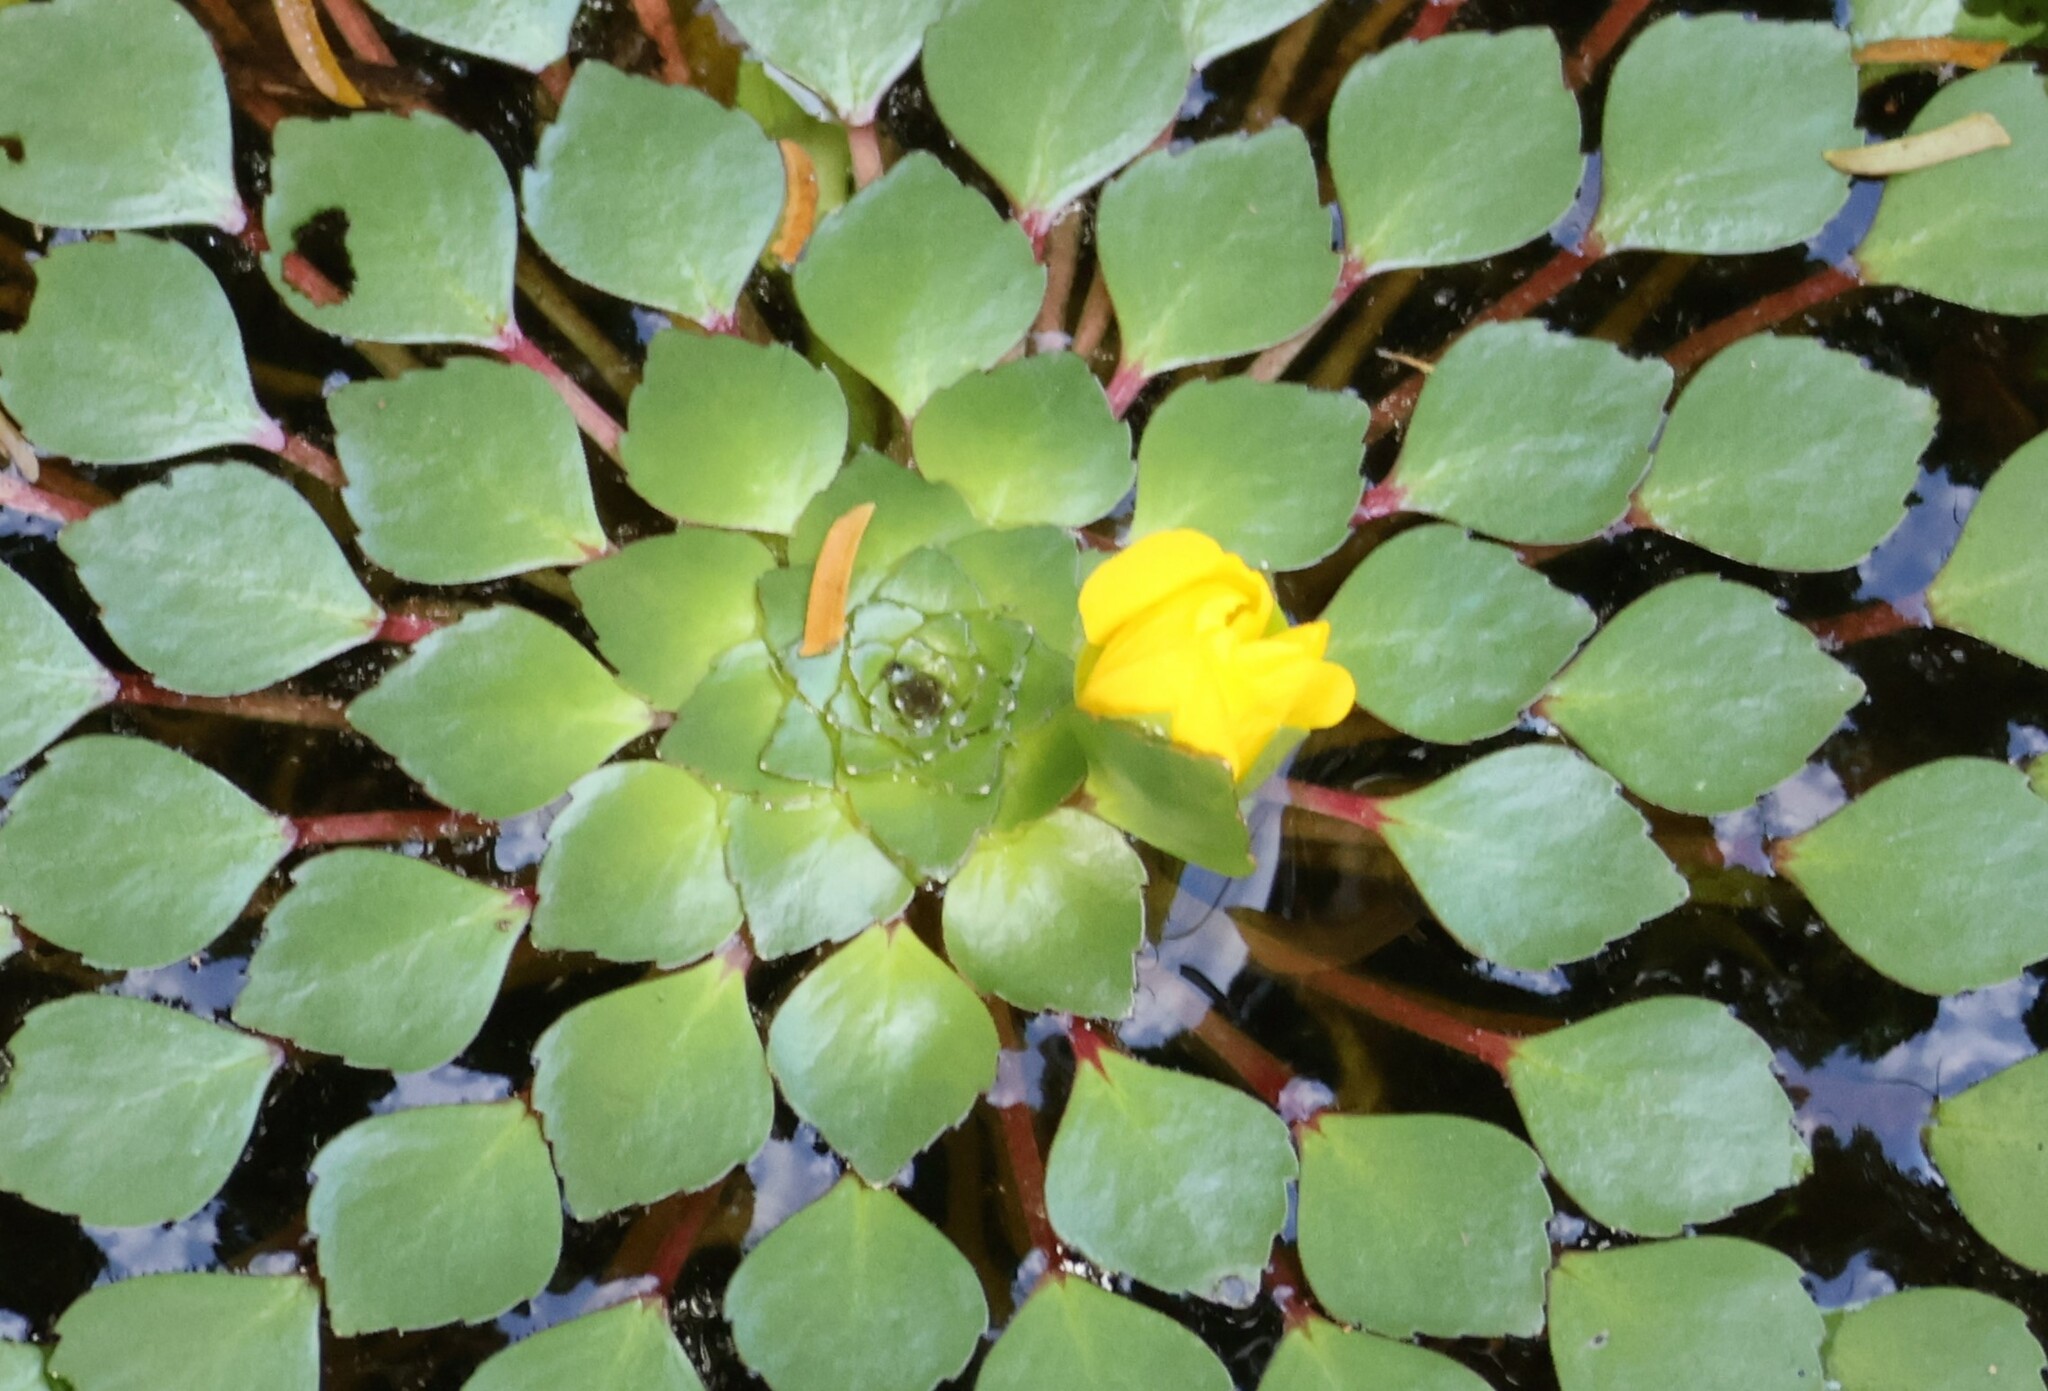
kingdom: Plantae
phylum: Tracheophyta
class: Magnoliopsida
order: Myrtales
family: Onagraceae
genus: Ludwigia
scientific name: Ludwigia sedioides
